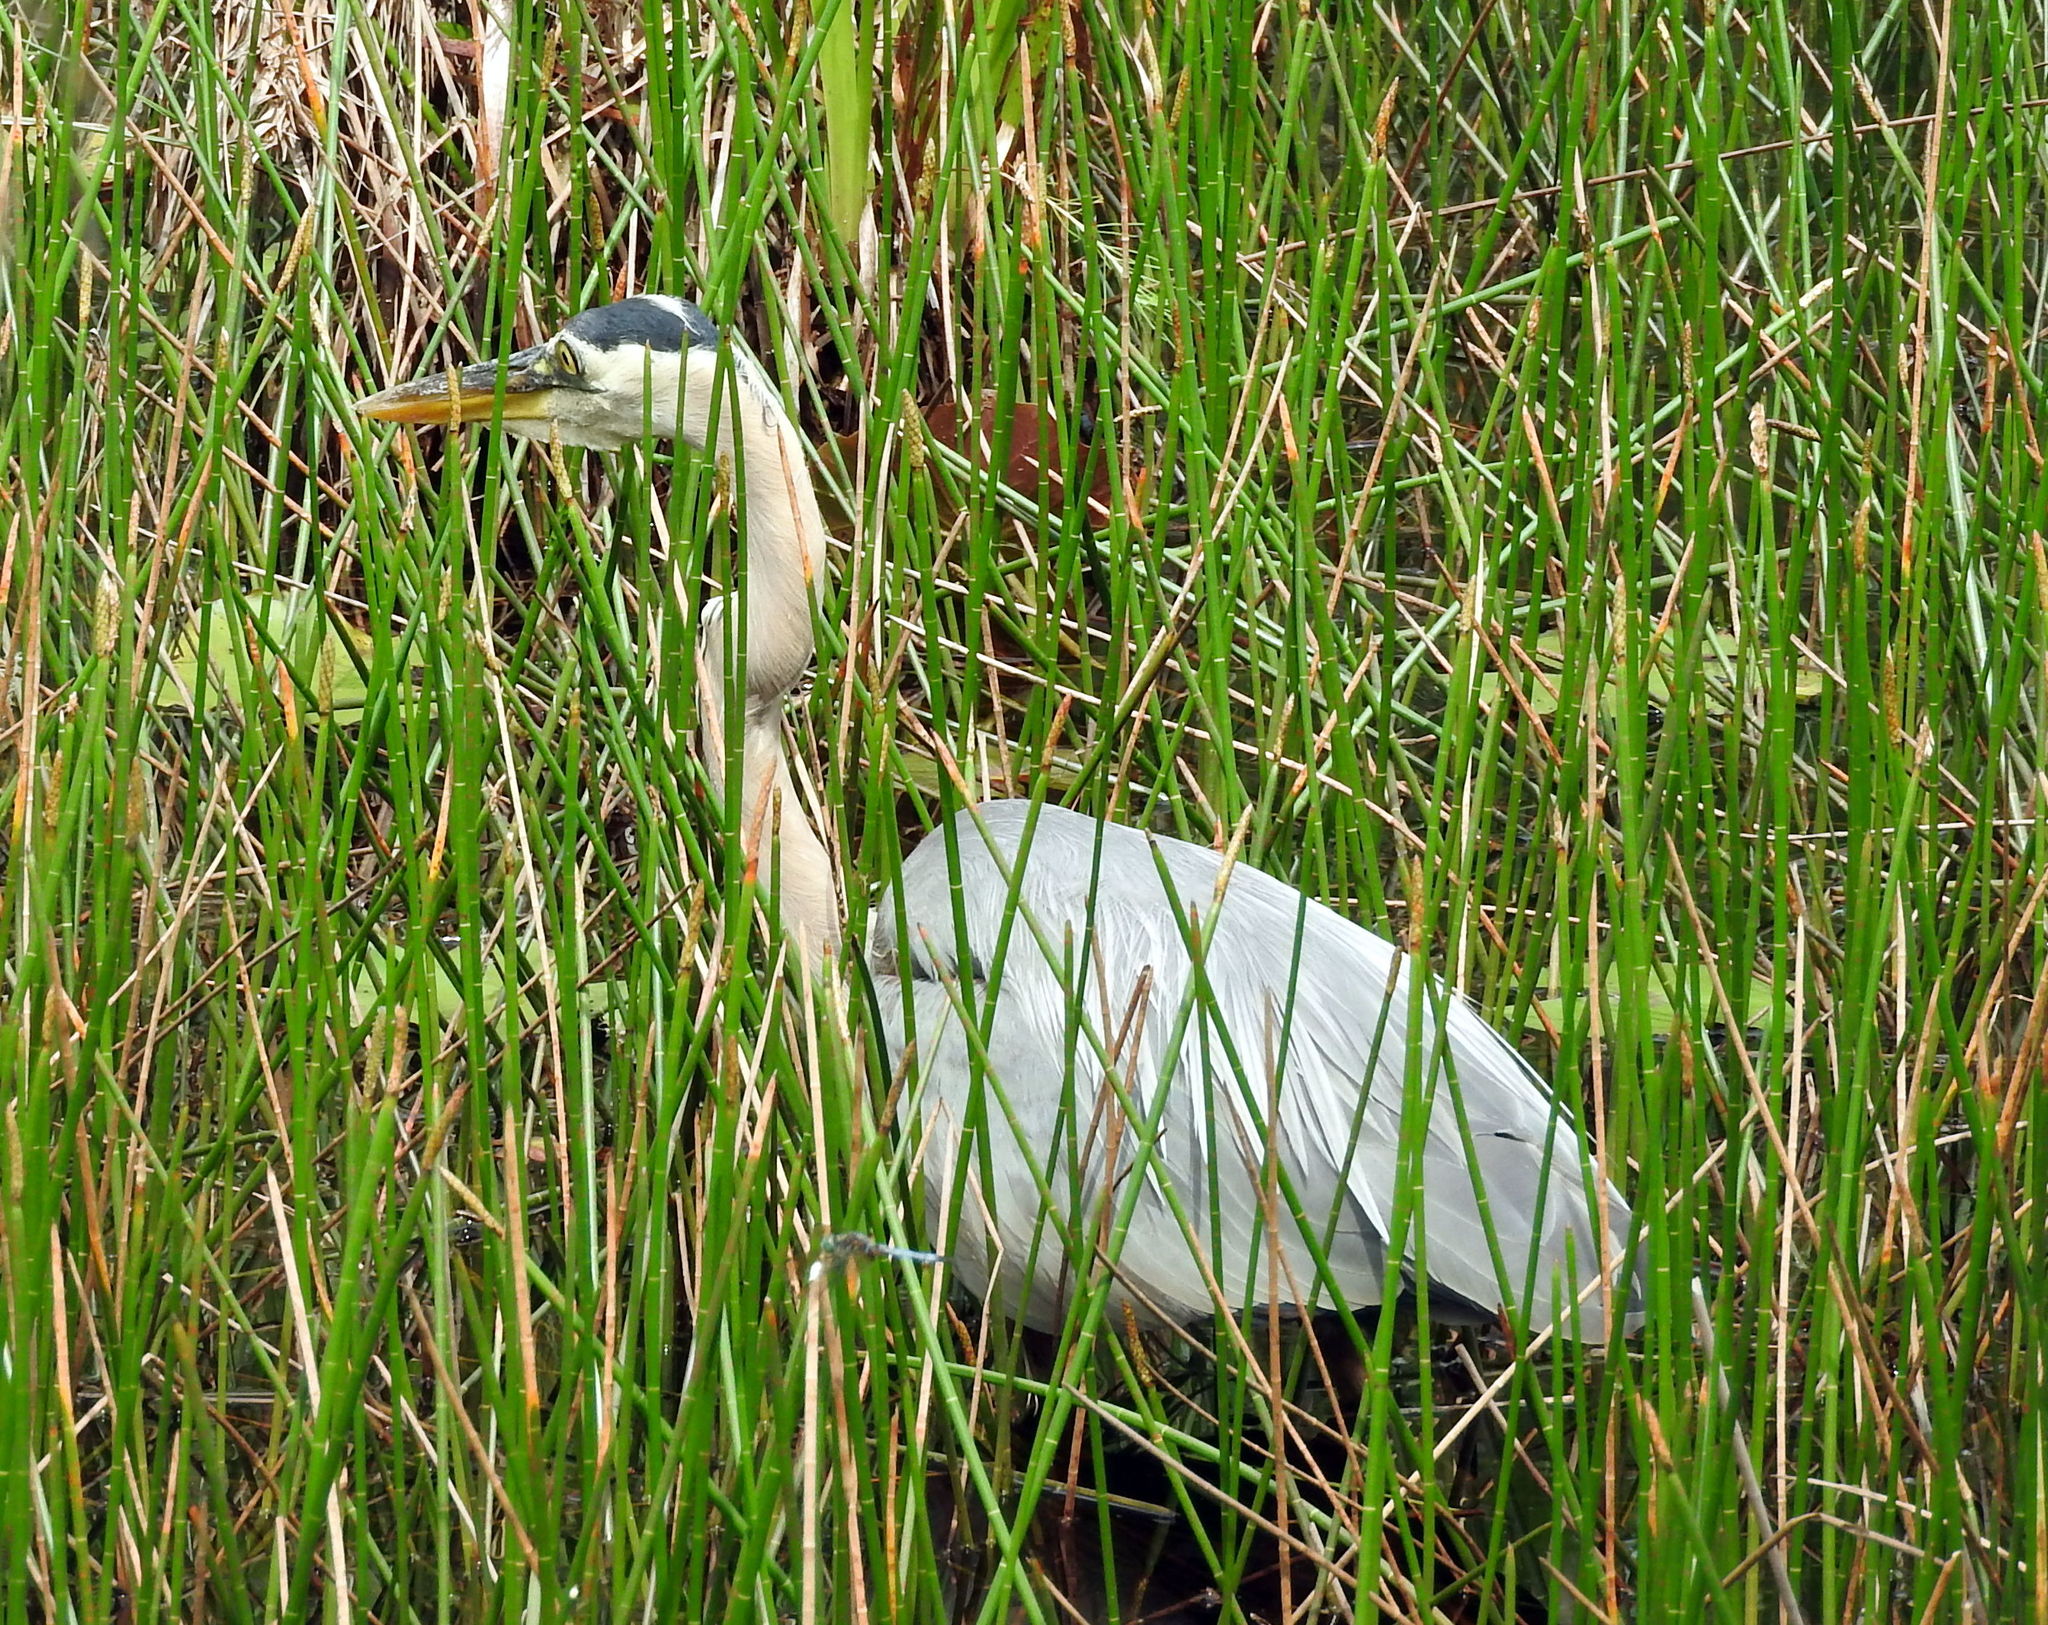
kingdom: Animalia
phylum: Chordata
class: Aves
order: Pelecaniformes
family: Ardeidae
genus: Ardea
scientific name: Ardea herodias
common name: Great blue heron
